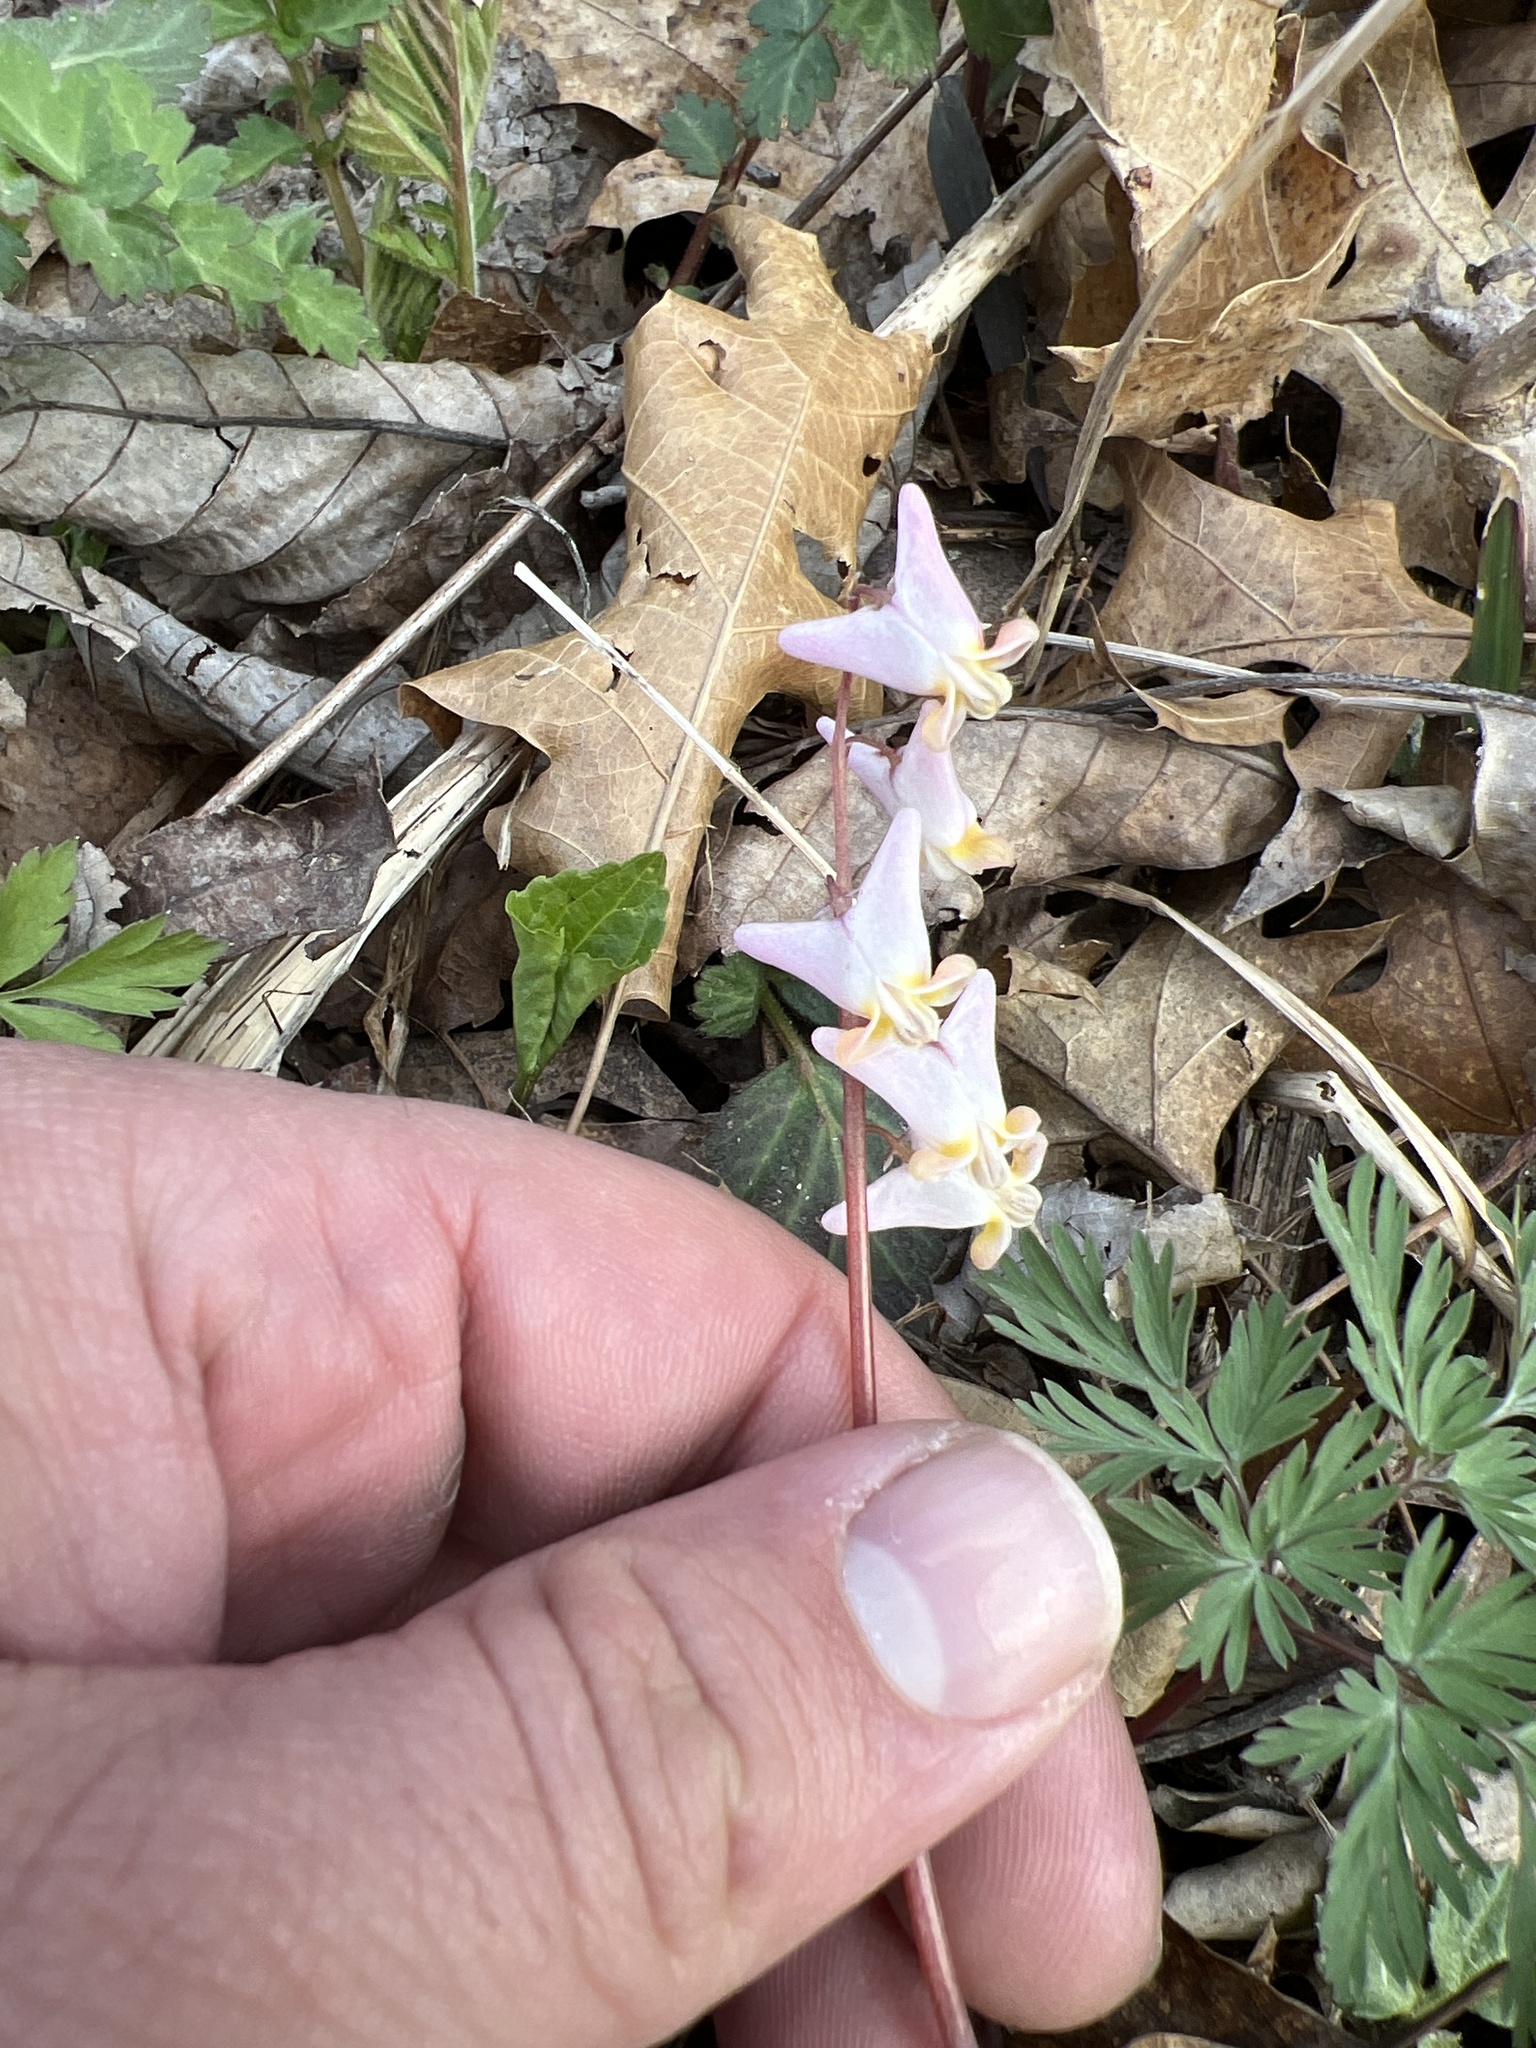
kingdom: Plantae
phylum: Tracheophyta
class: Magnoliopsida
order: Ranunculales
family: Papaveraceae
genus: Dicentra
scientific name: Dicentra cucullaria
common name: Dutchman's breeches
